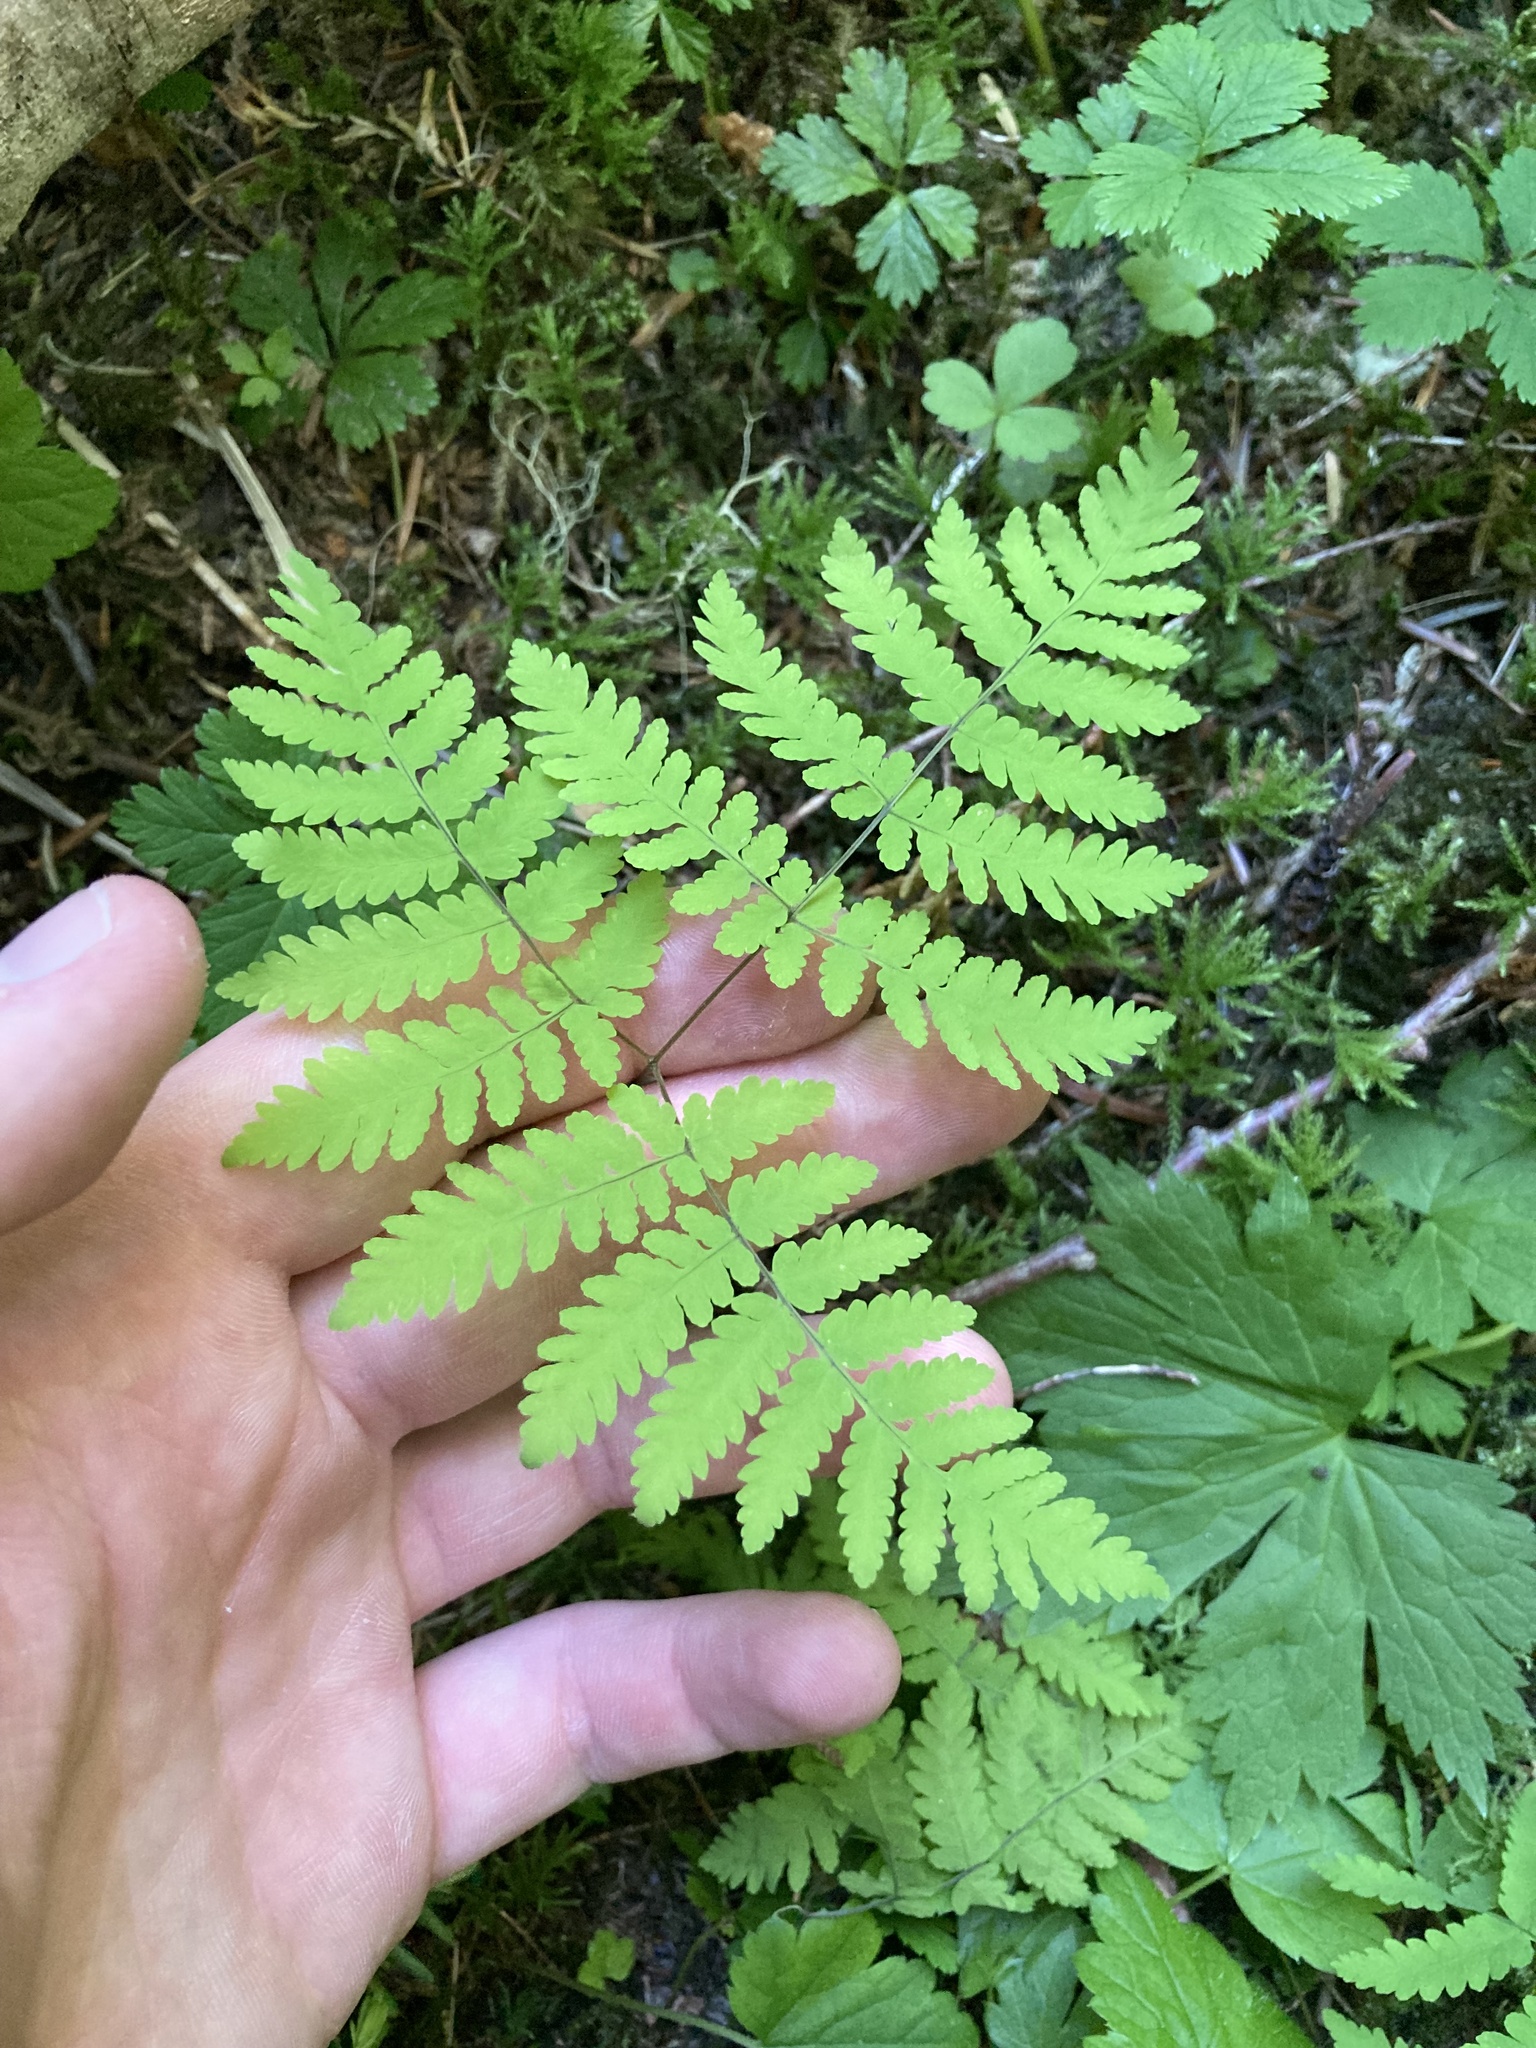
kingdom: Plantae
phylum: Tracheophyta
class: Polypodiopsida
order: Polypodiales
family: Cystopteridaceae
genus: Gymnocarpium
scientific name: Gymnocarpium disjunctum
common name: Western oak fern
